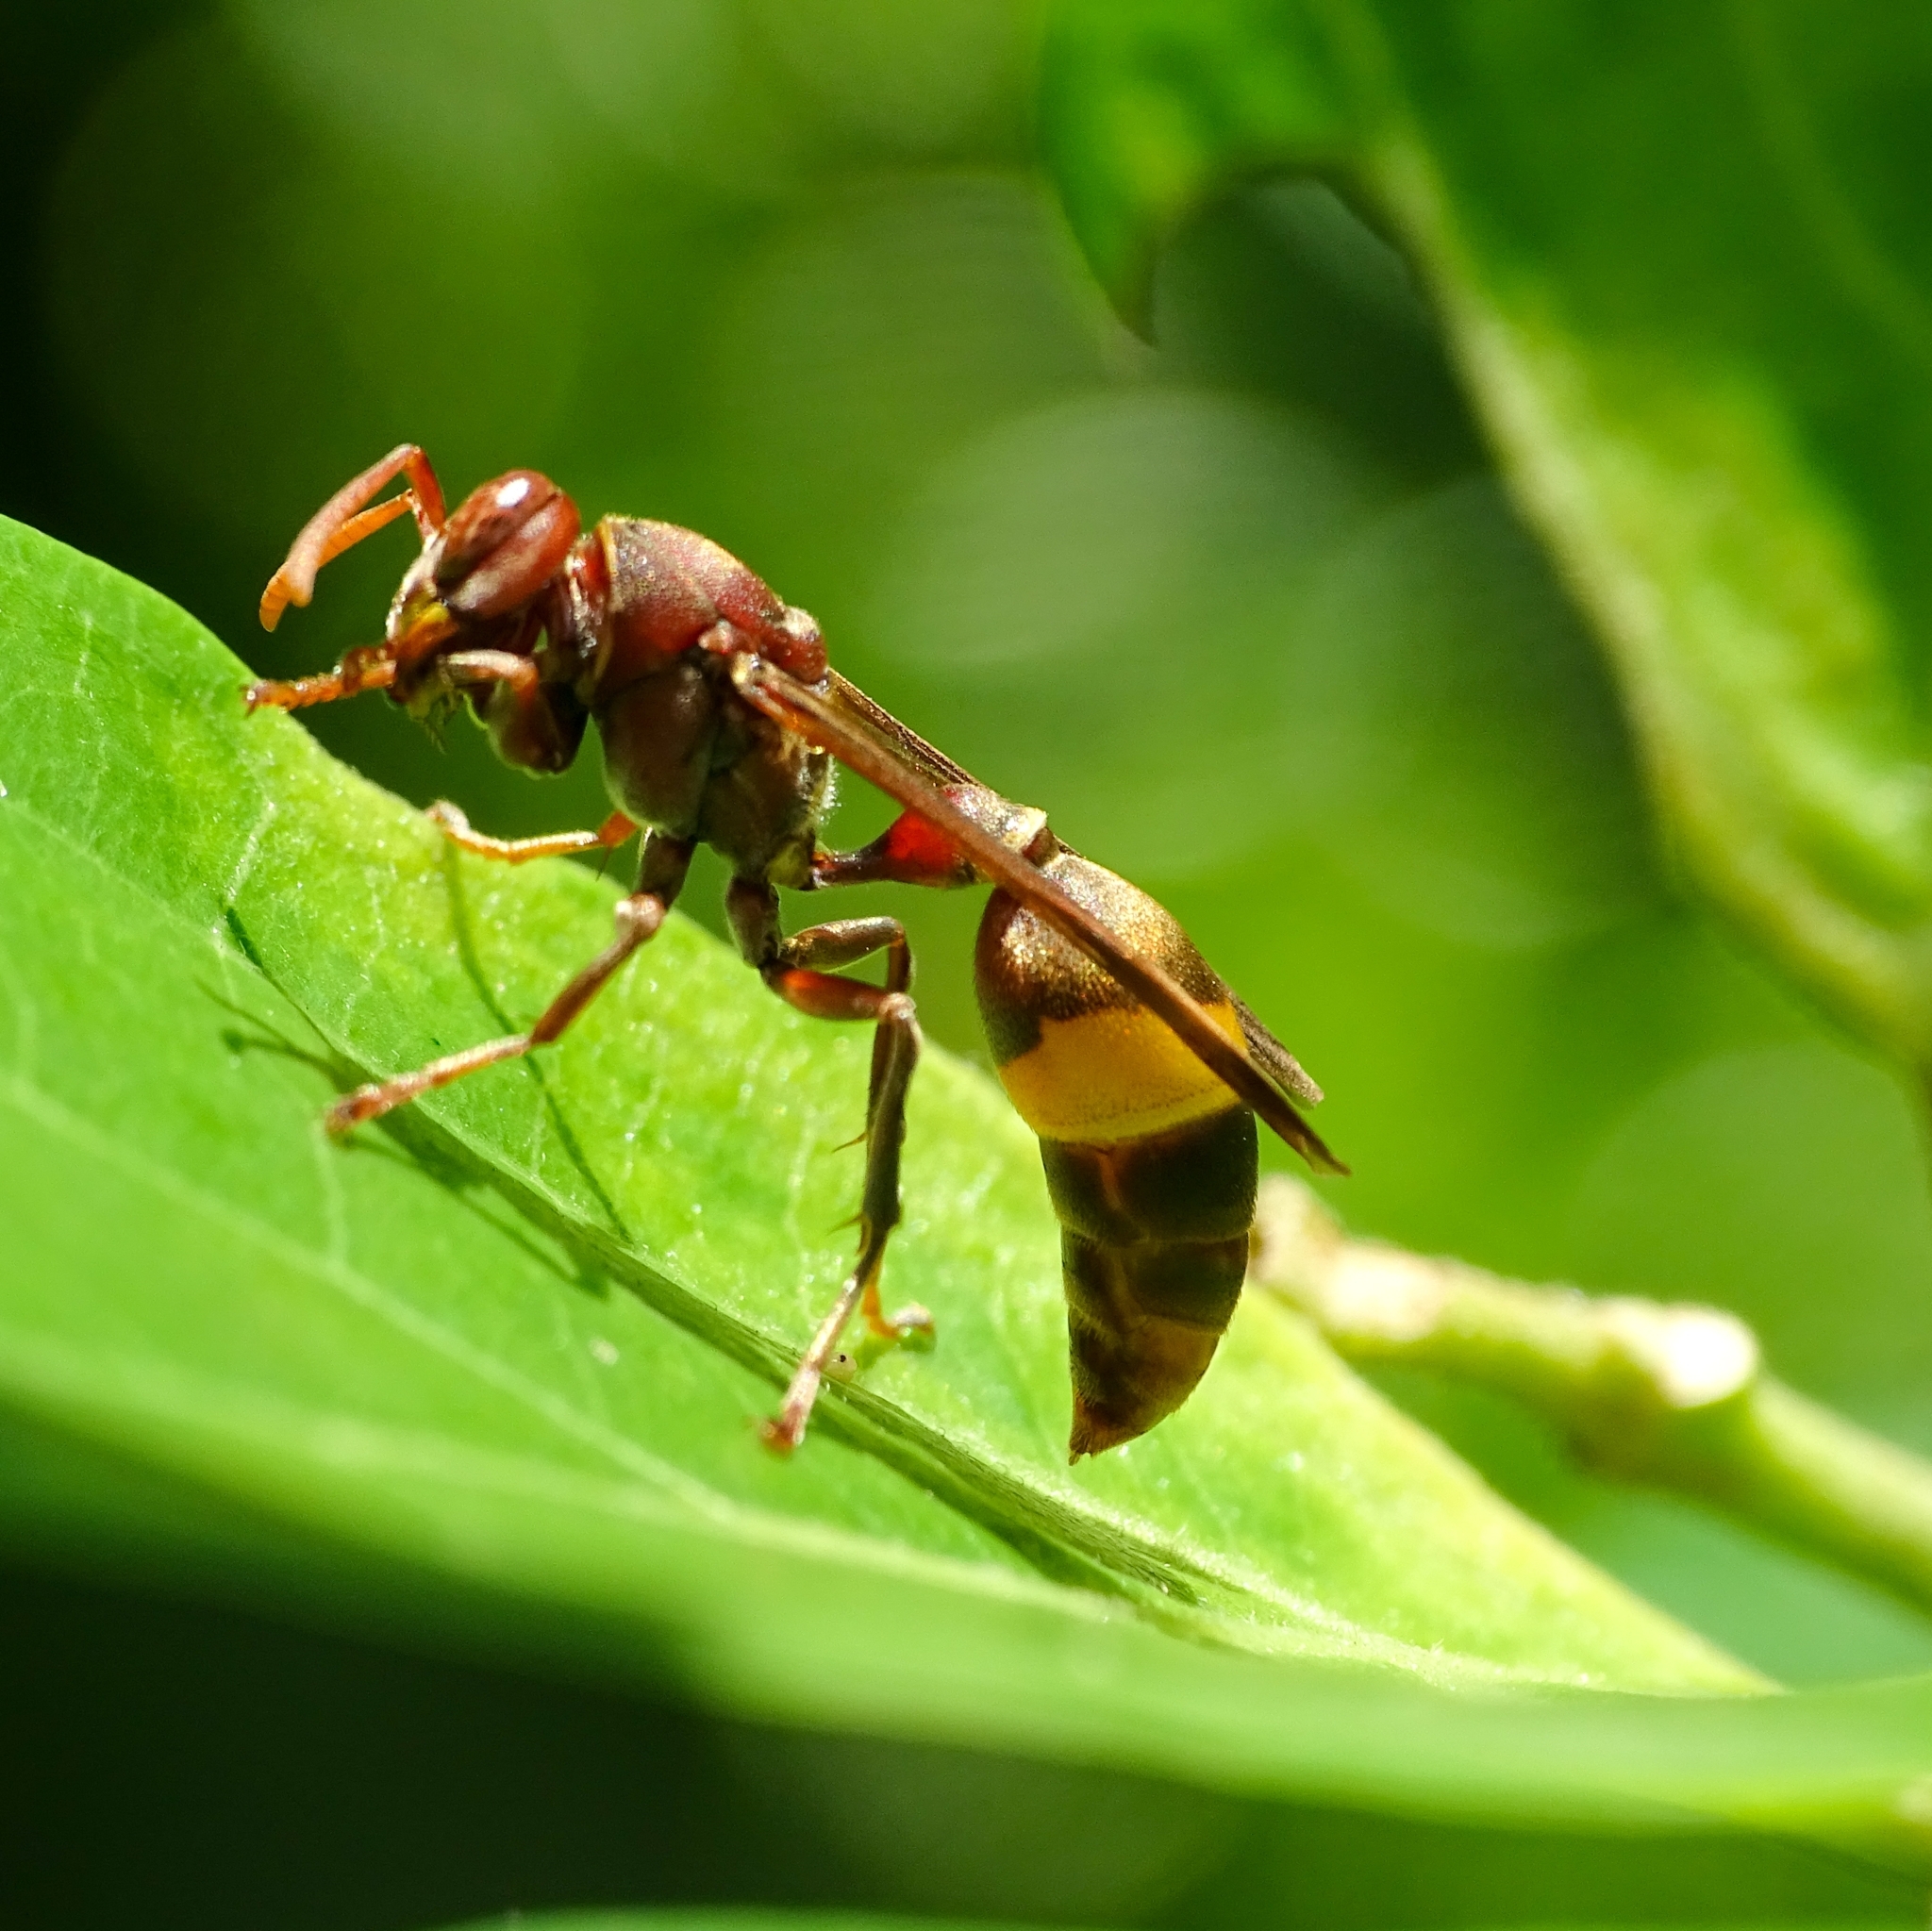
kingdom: Animalia
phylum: Arthropoda
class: Insecta
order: Hymenoptera
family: Vespidae
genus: Ropalidia
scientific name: Ropalidia
